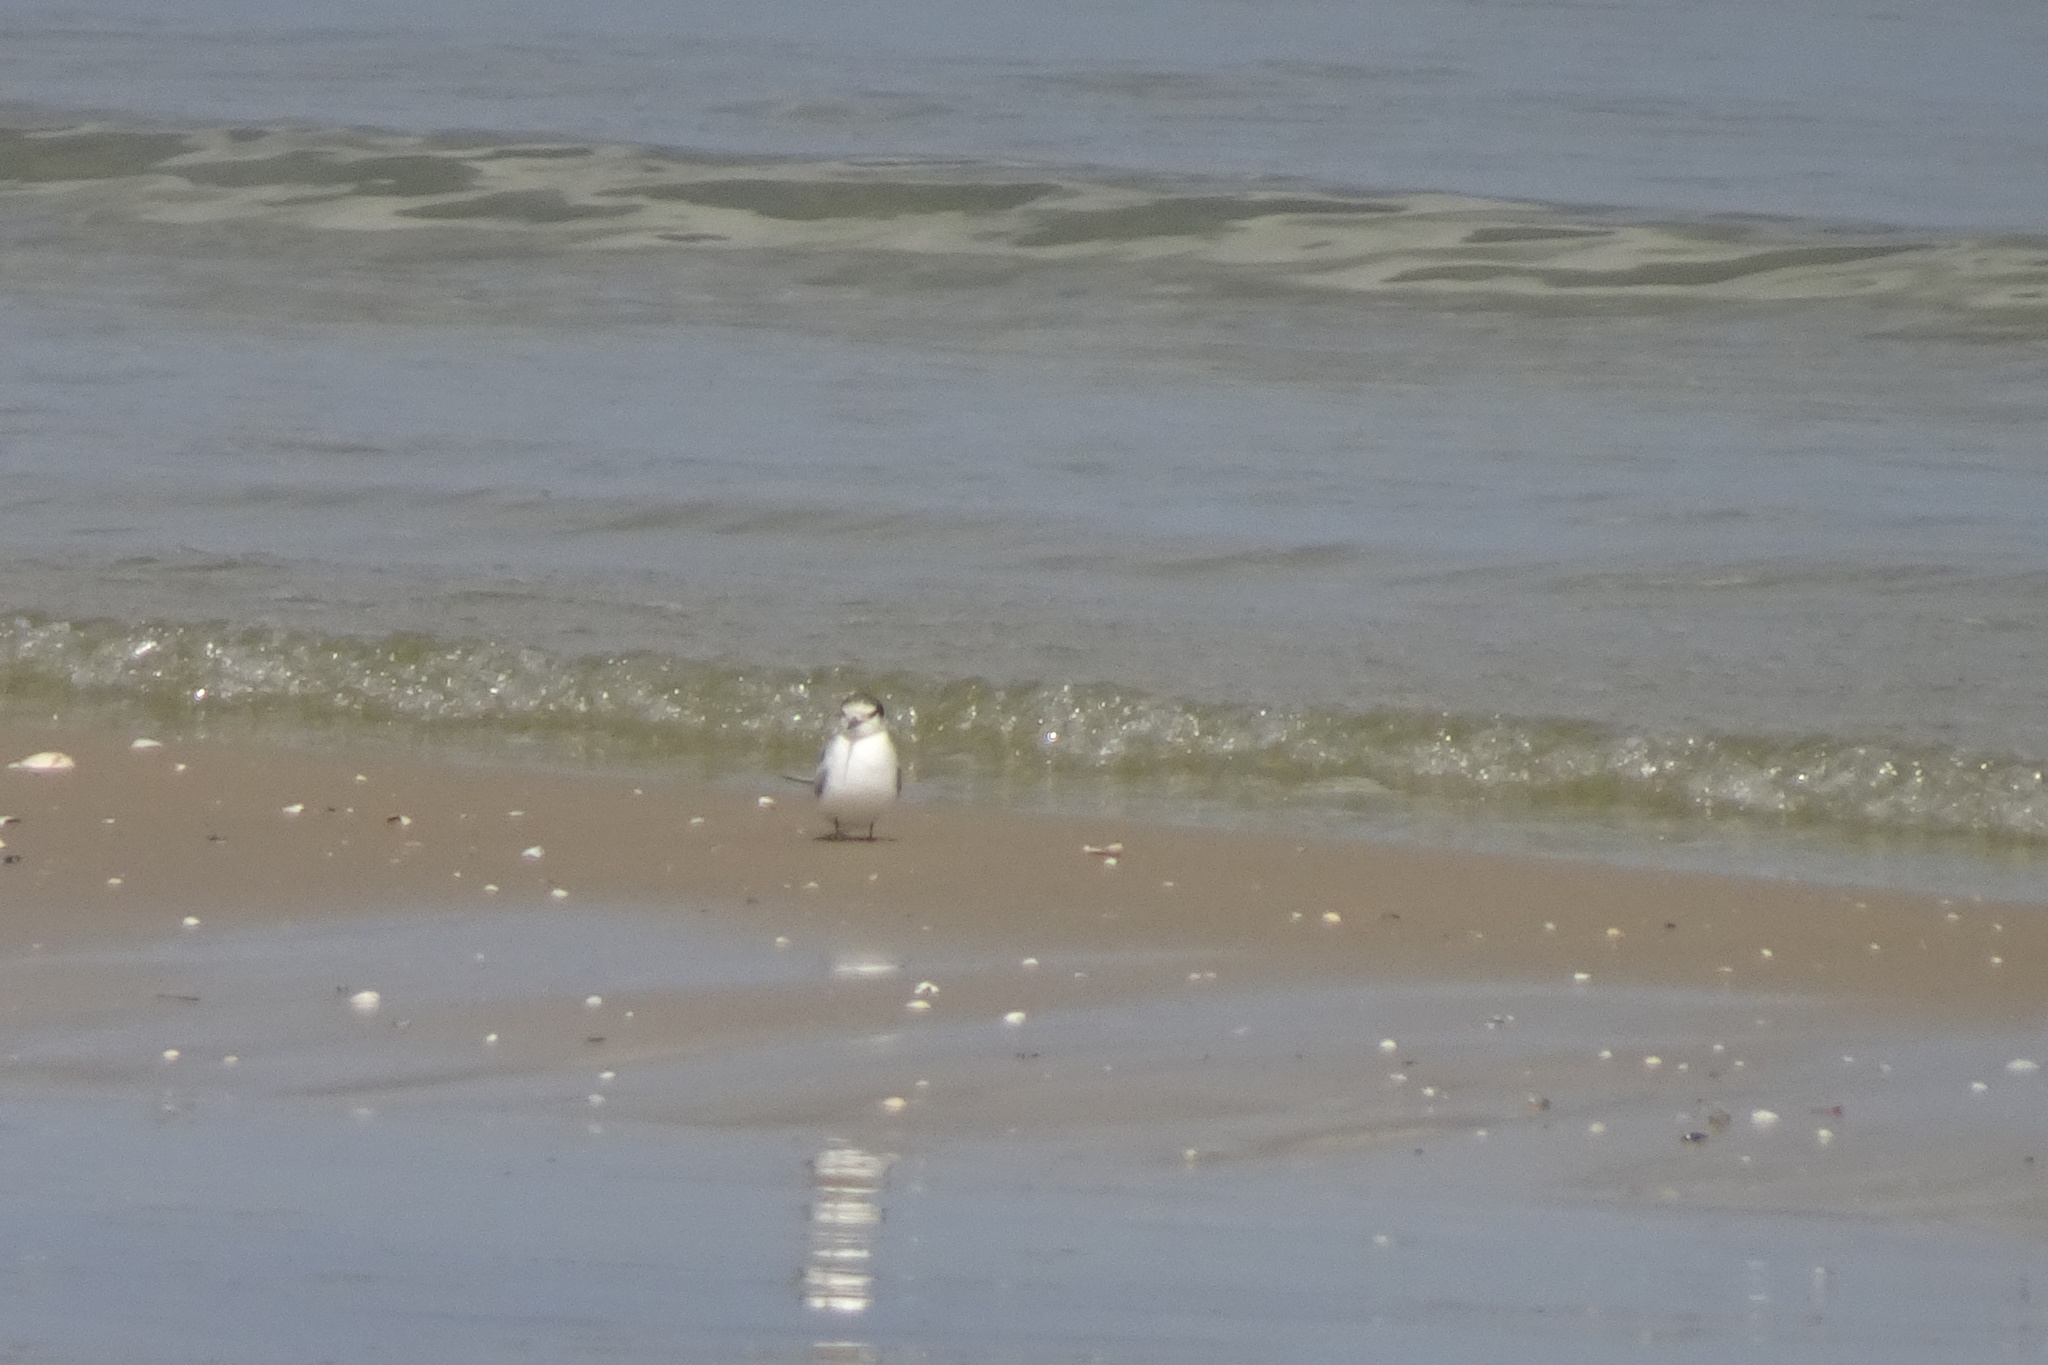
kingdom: Animalia
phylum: Chordata
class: Aves
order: Charadriiformes
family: Laridae
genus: Sternula
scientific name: Sternula albifrons
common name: Little tern
